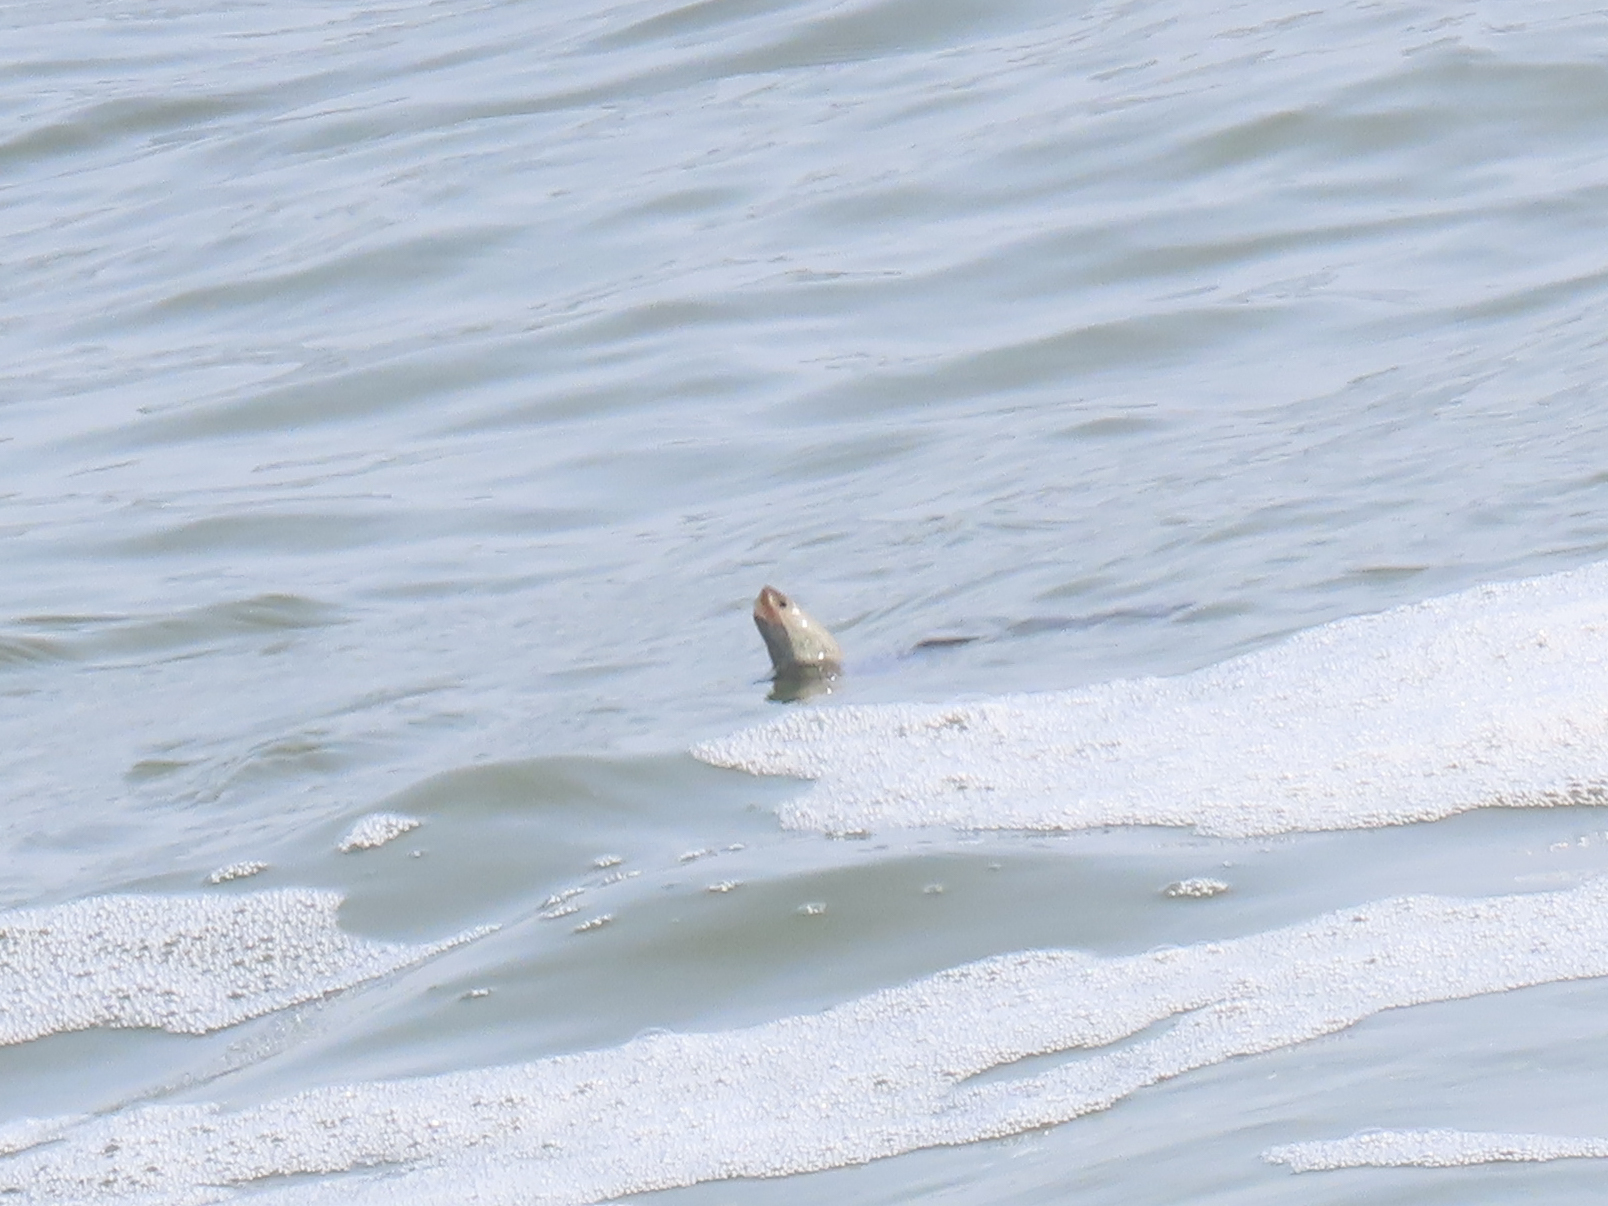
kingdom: Animalia
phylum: Chordata
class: Testudines
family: Emydidae
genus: Malaclemys
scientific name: Malaclemys terrapin
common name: Diamondback terrapin
